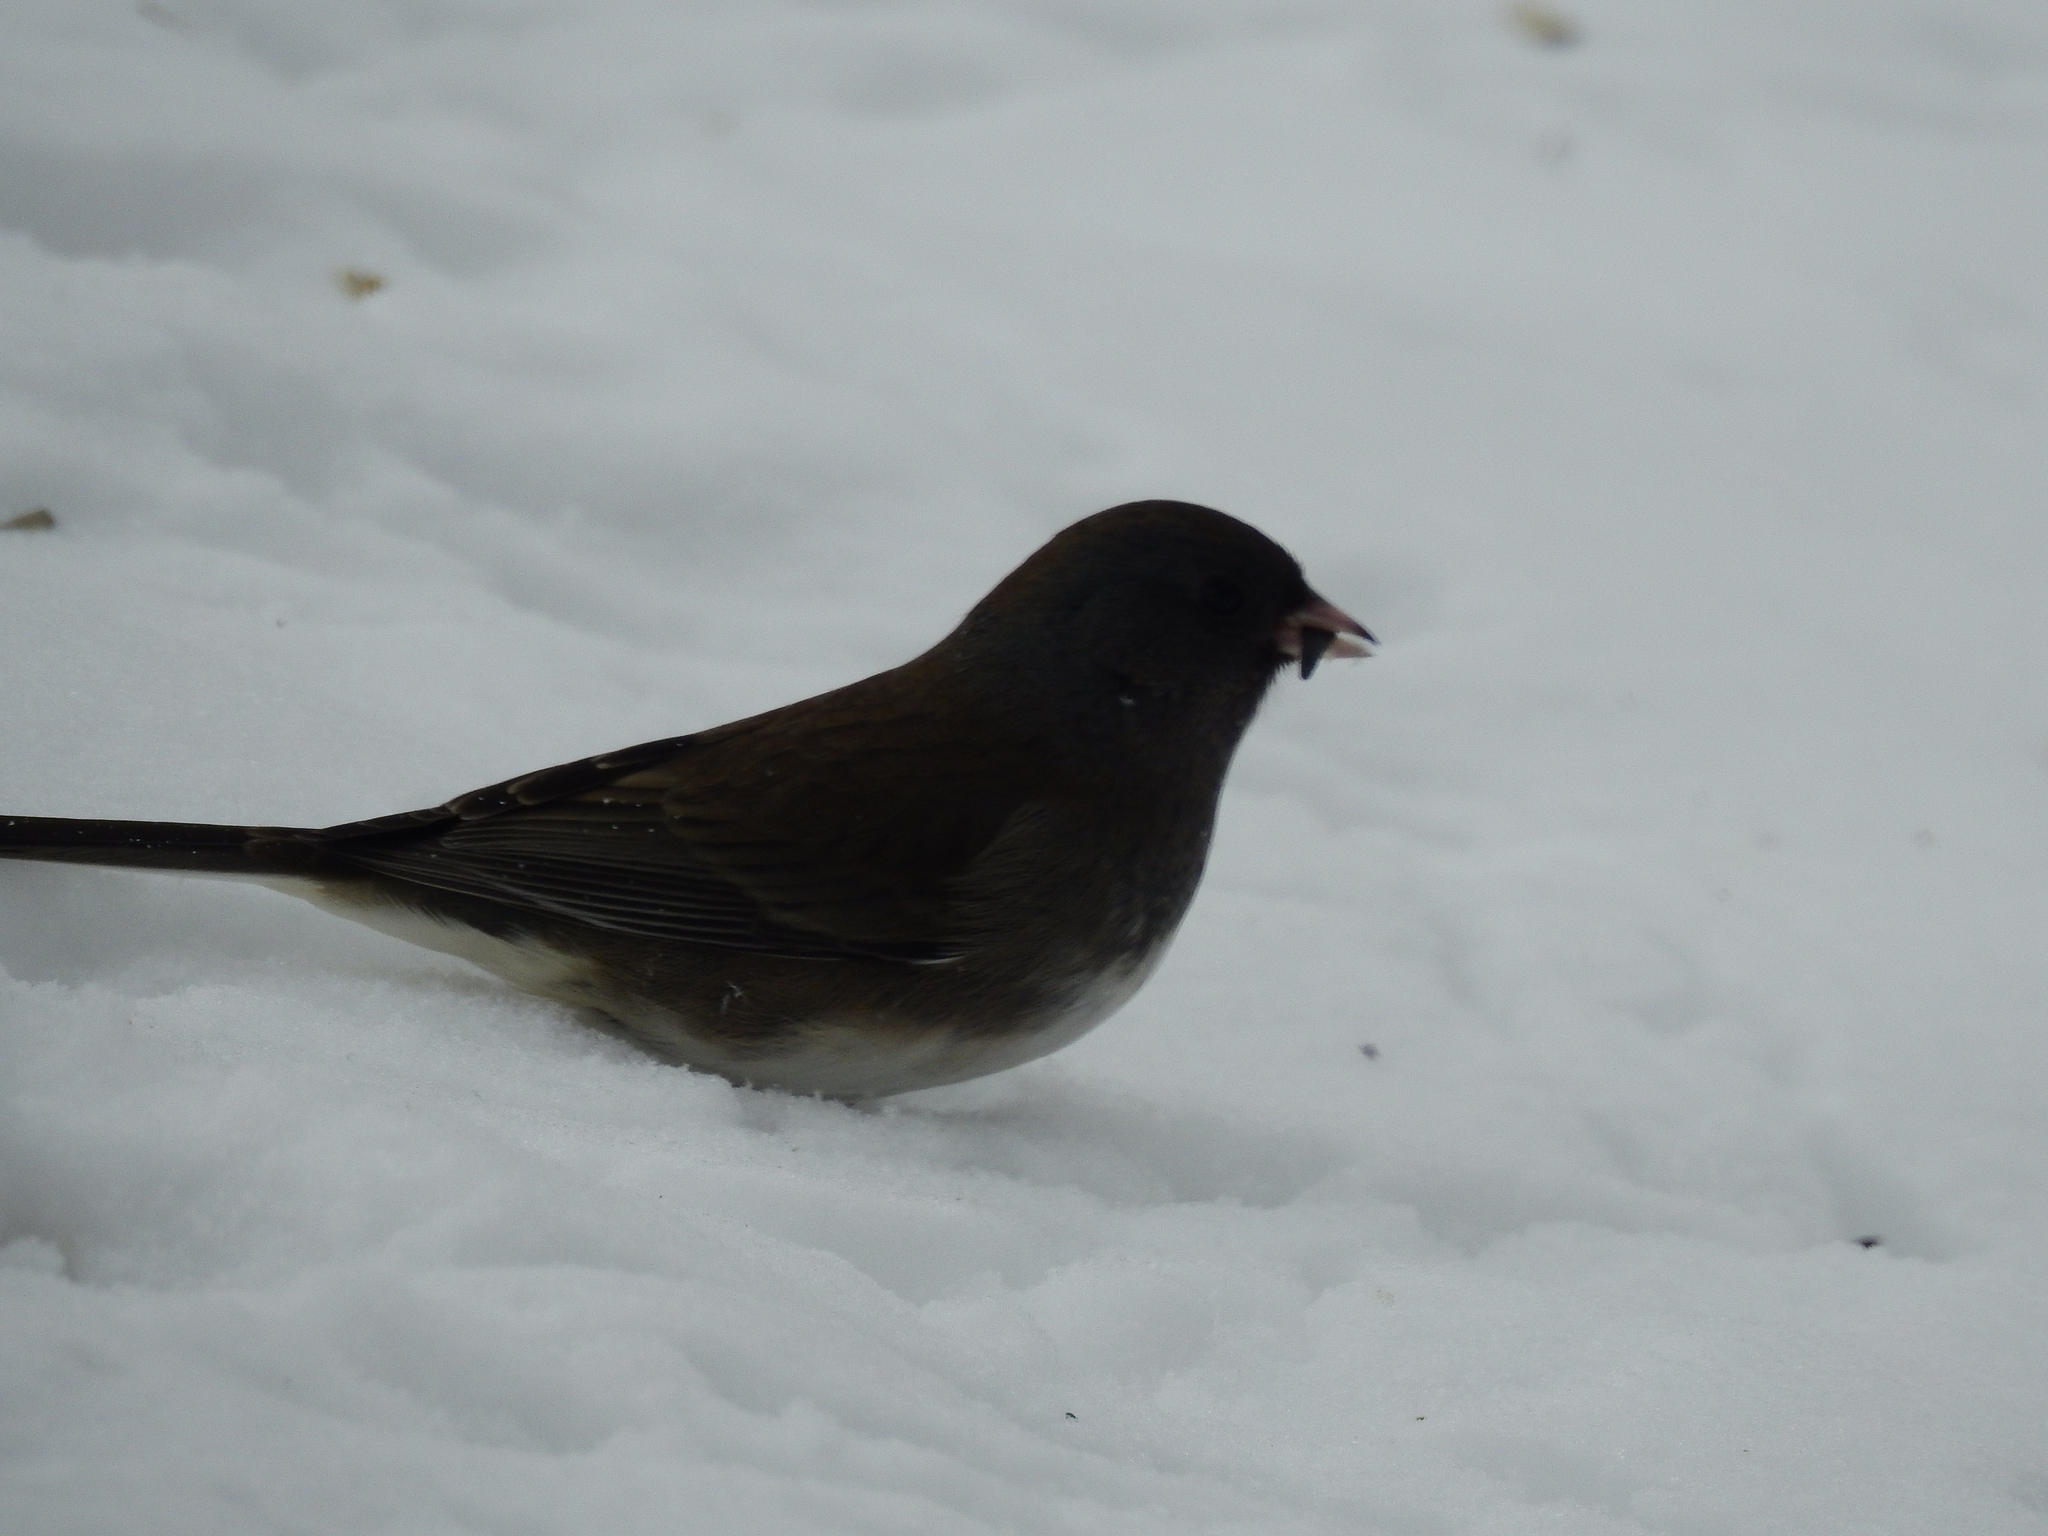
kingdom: Animalia
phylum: Chordata
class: Aves
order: Passeriformes
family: Passerellidae
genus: Junco
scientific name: Junco hyemalis
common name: Dark-eyed junco
